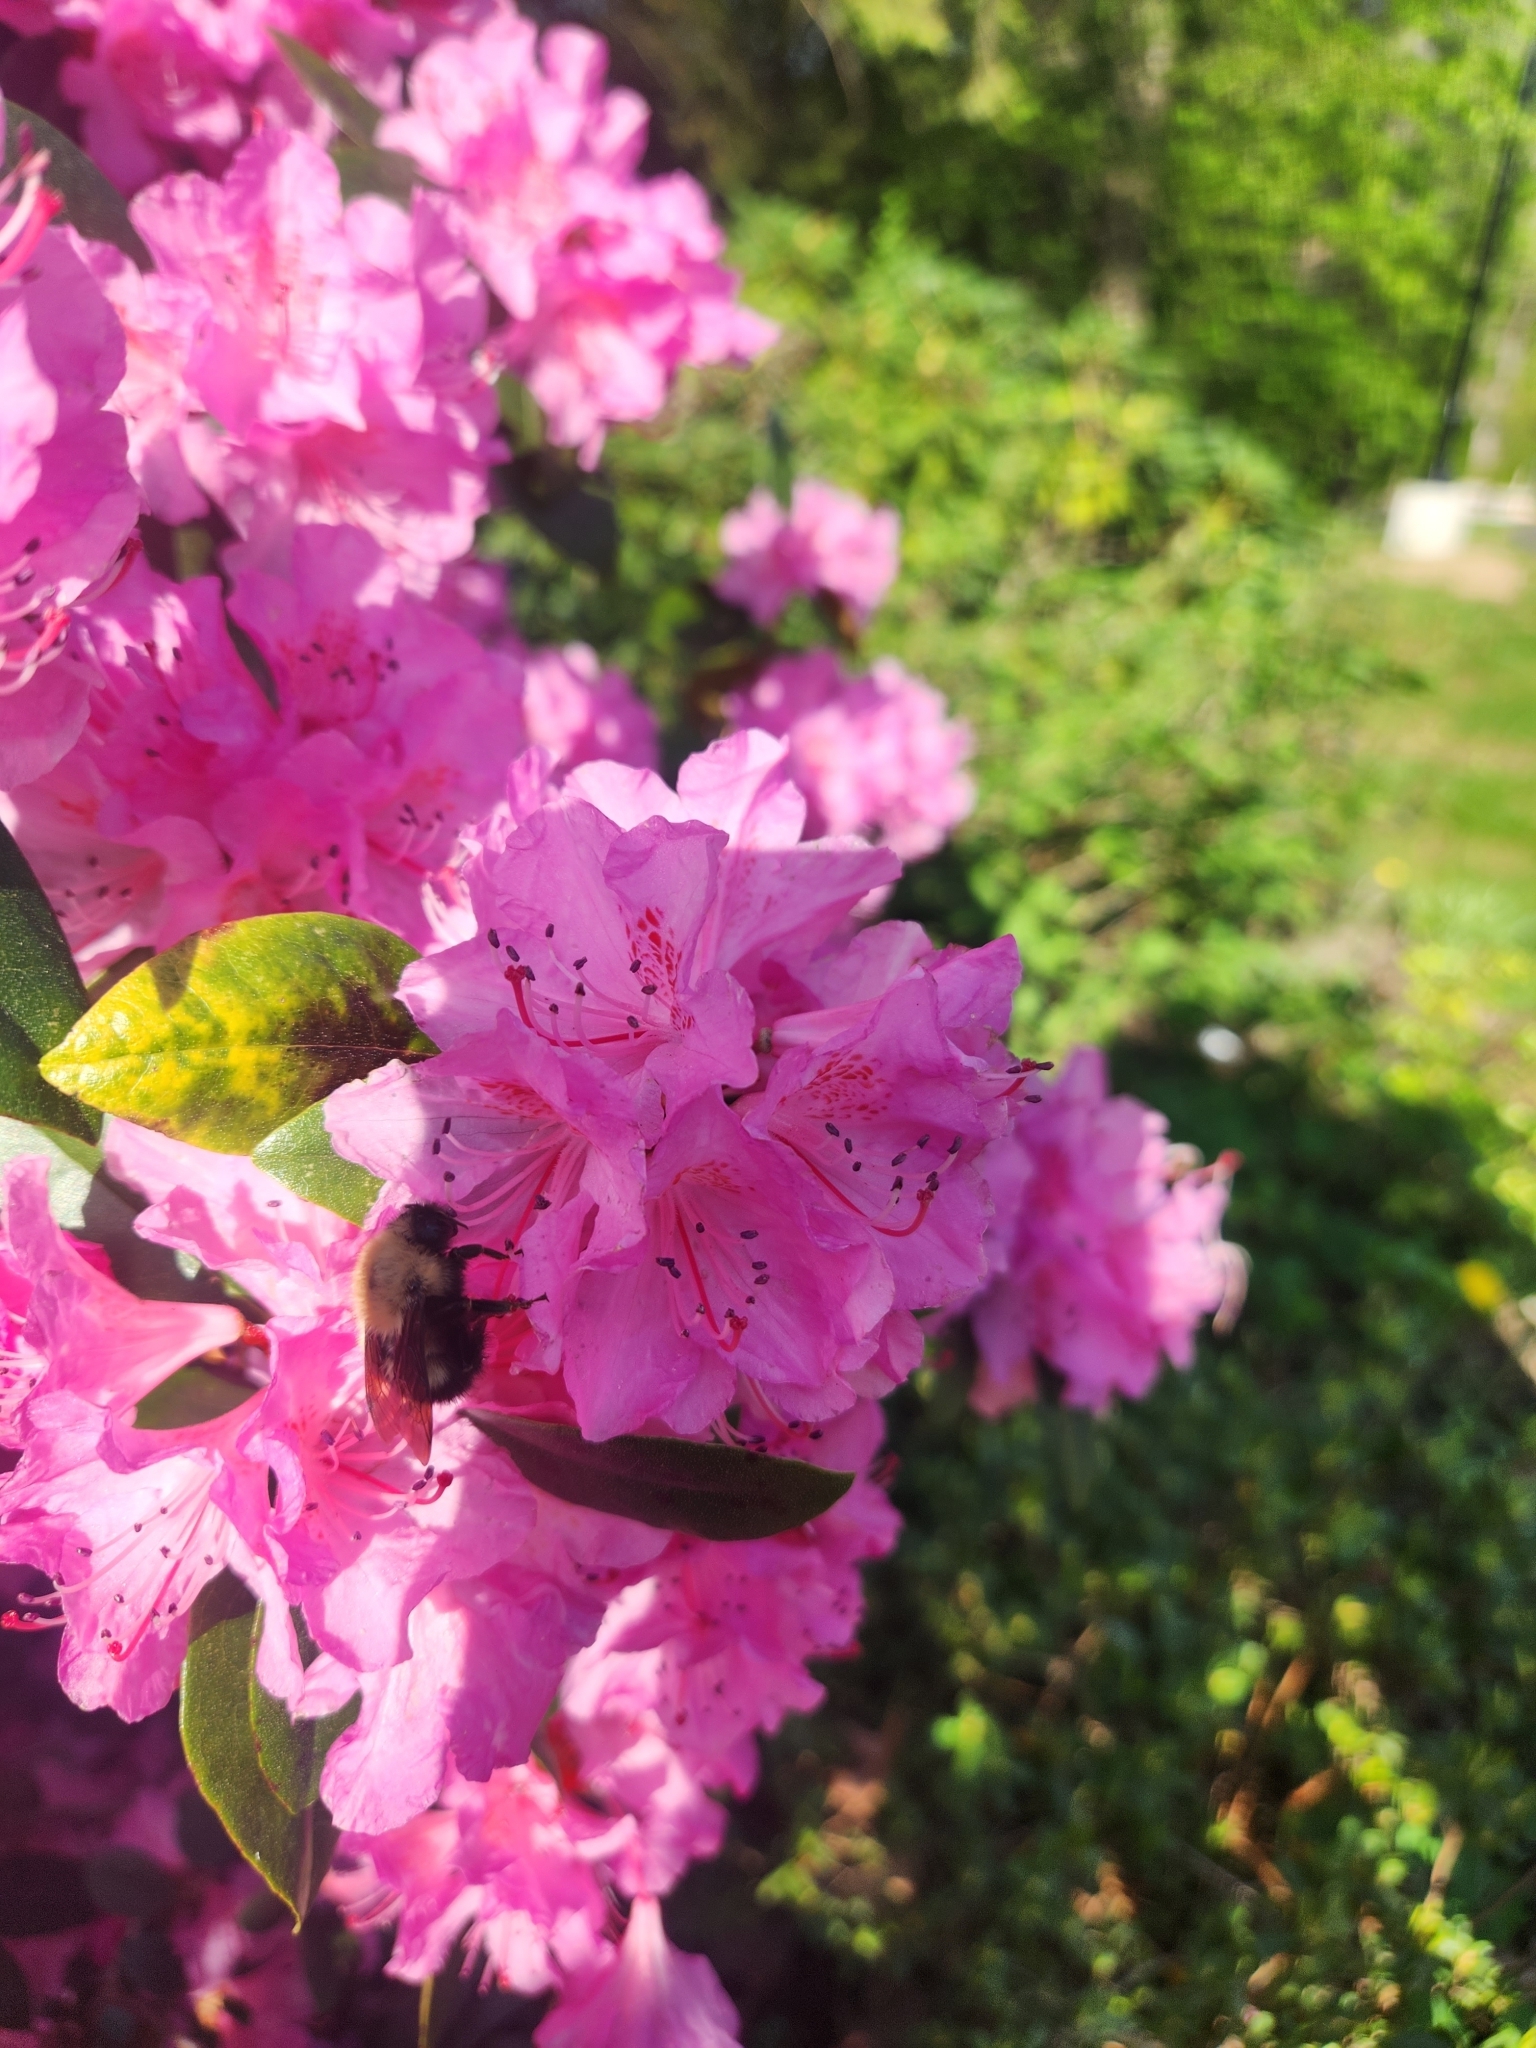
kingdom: Animalia
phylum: Arthropoda
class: Insecta
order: Hymenoptera
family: Apidae
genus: Bombus
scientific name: Bombus perplexus
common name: Confusing bumble bee
